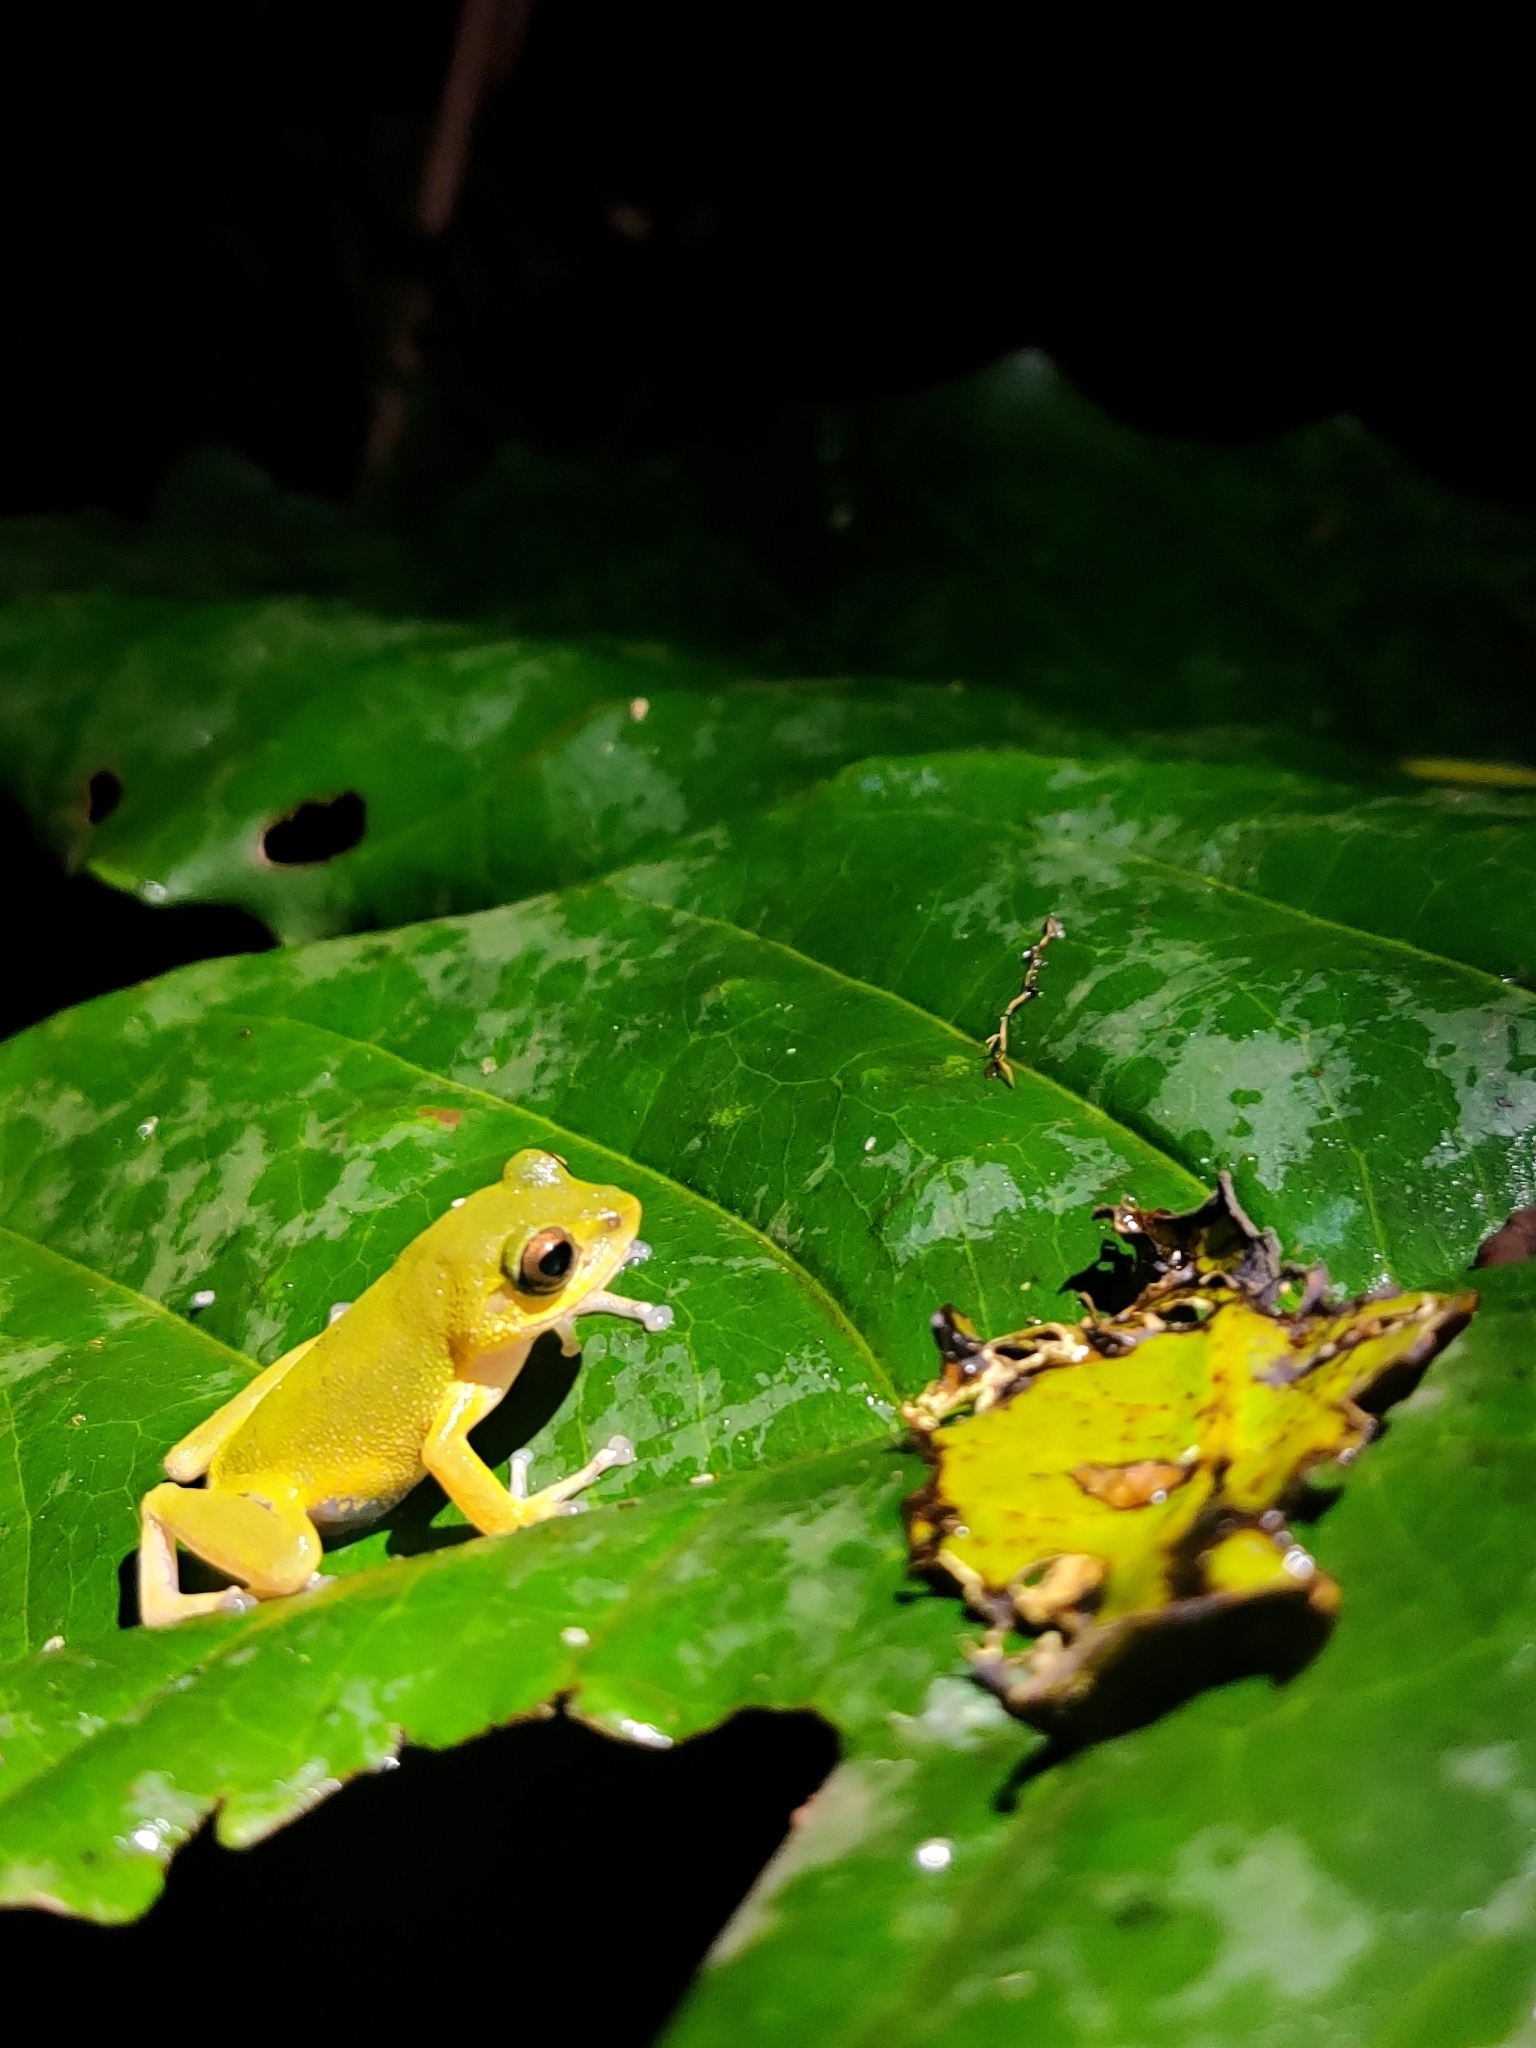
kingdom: Animalia
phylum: Chordata
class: Amphibia
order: Anura
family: Rhacophoridae
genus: Raorchestes
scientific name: Raorchestes chromasynchysi
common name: Confusing green bush frog
